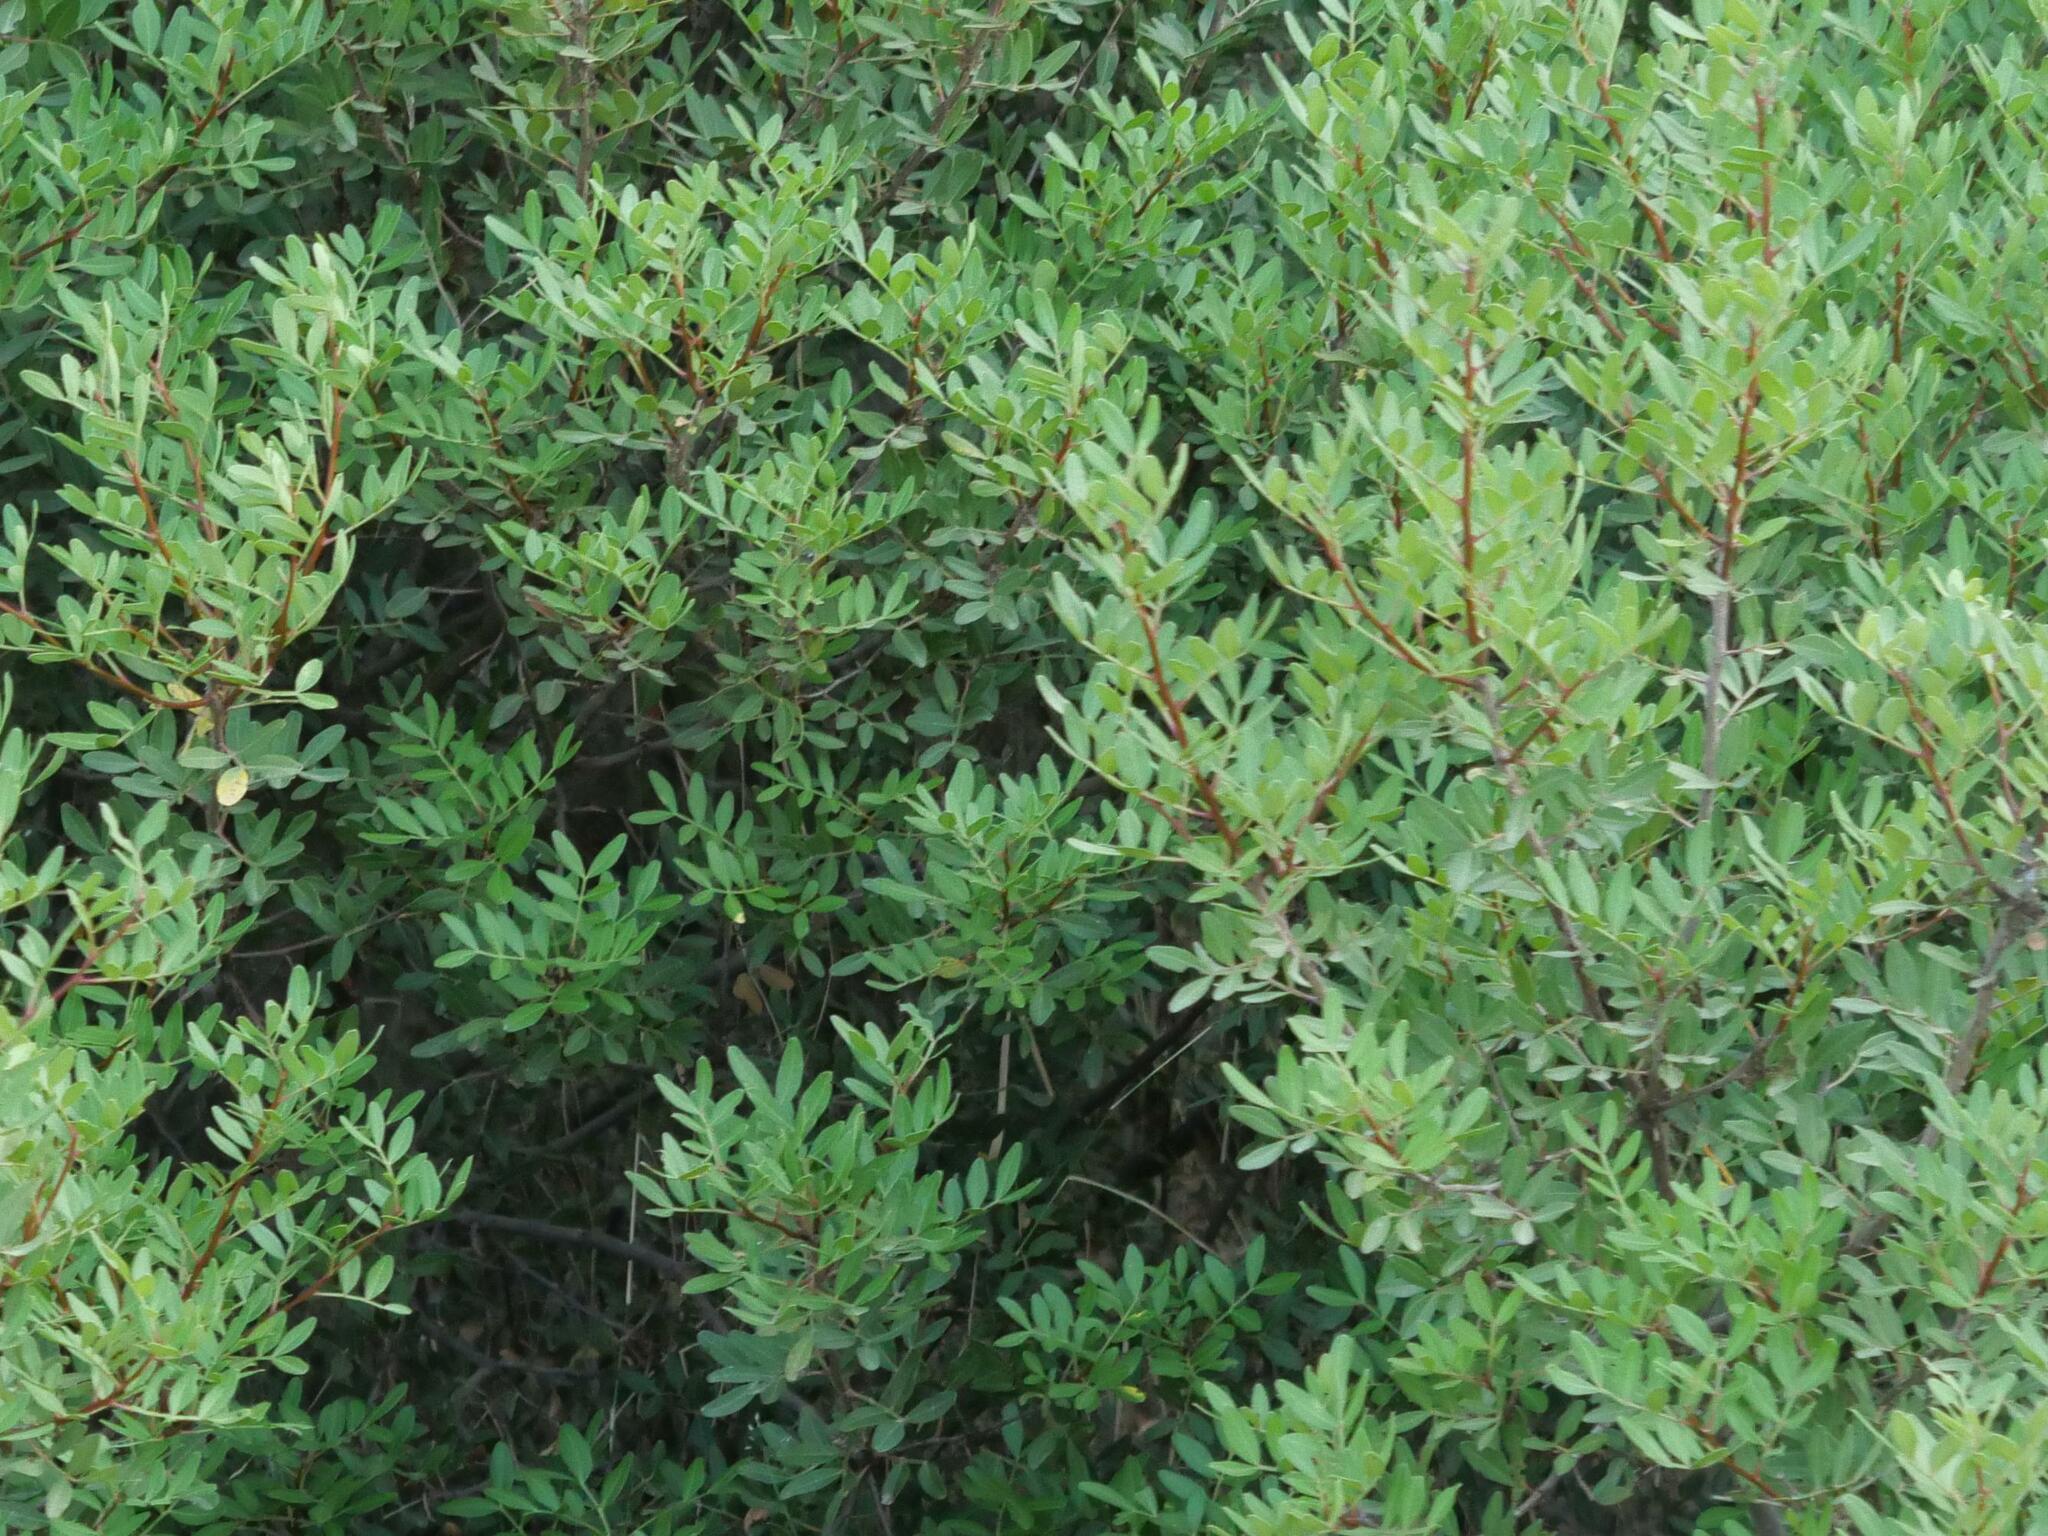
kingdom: Plantae
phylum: Tracheophyta
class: Magnoliopsida
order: Sapindales
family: Anacardiaceae
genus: Pistacia
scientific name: Pistacia lentiscus
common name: Lentisk
